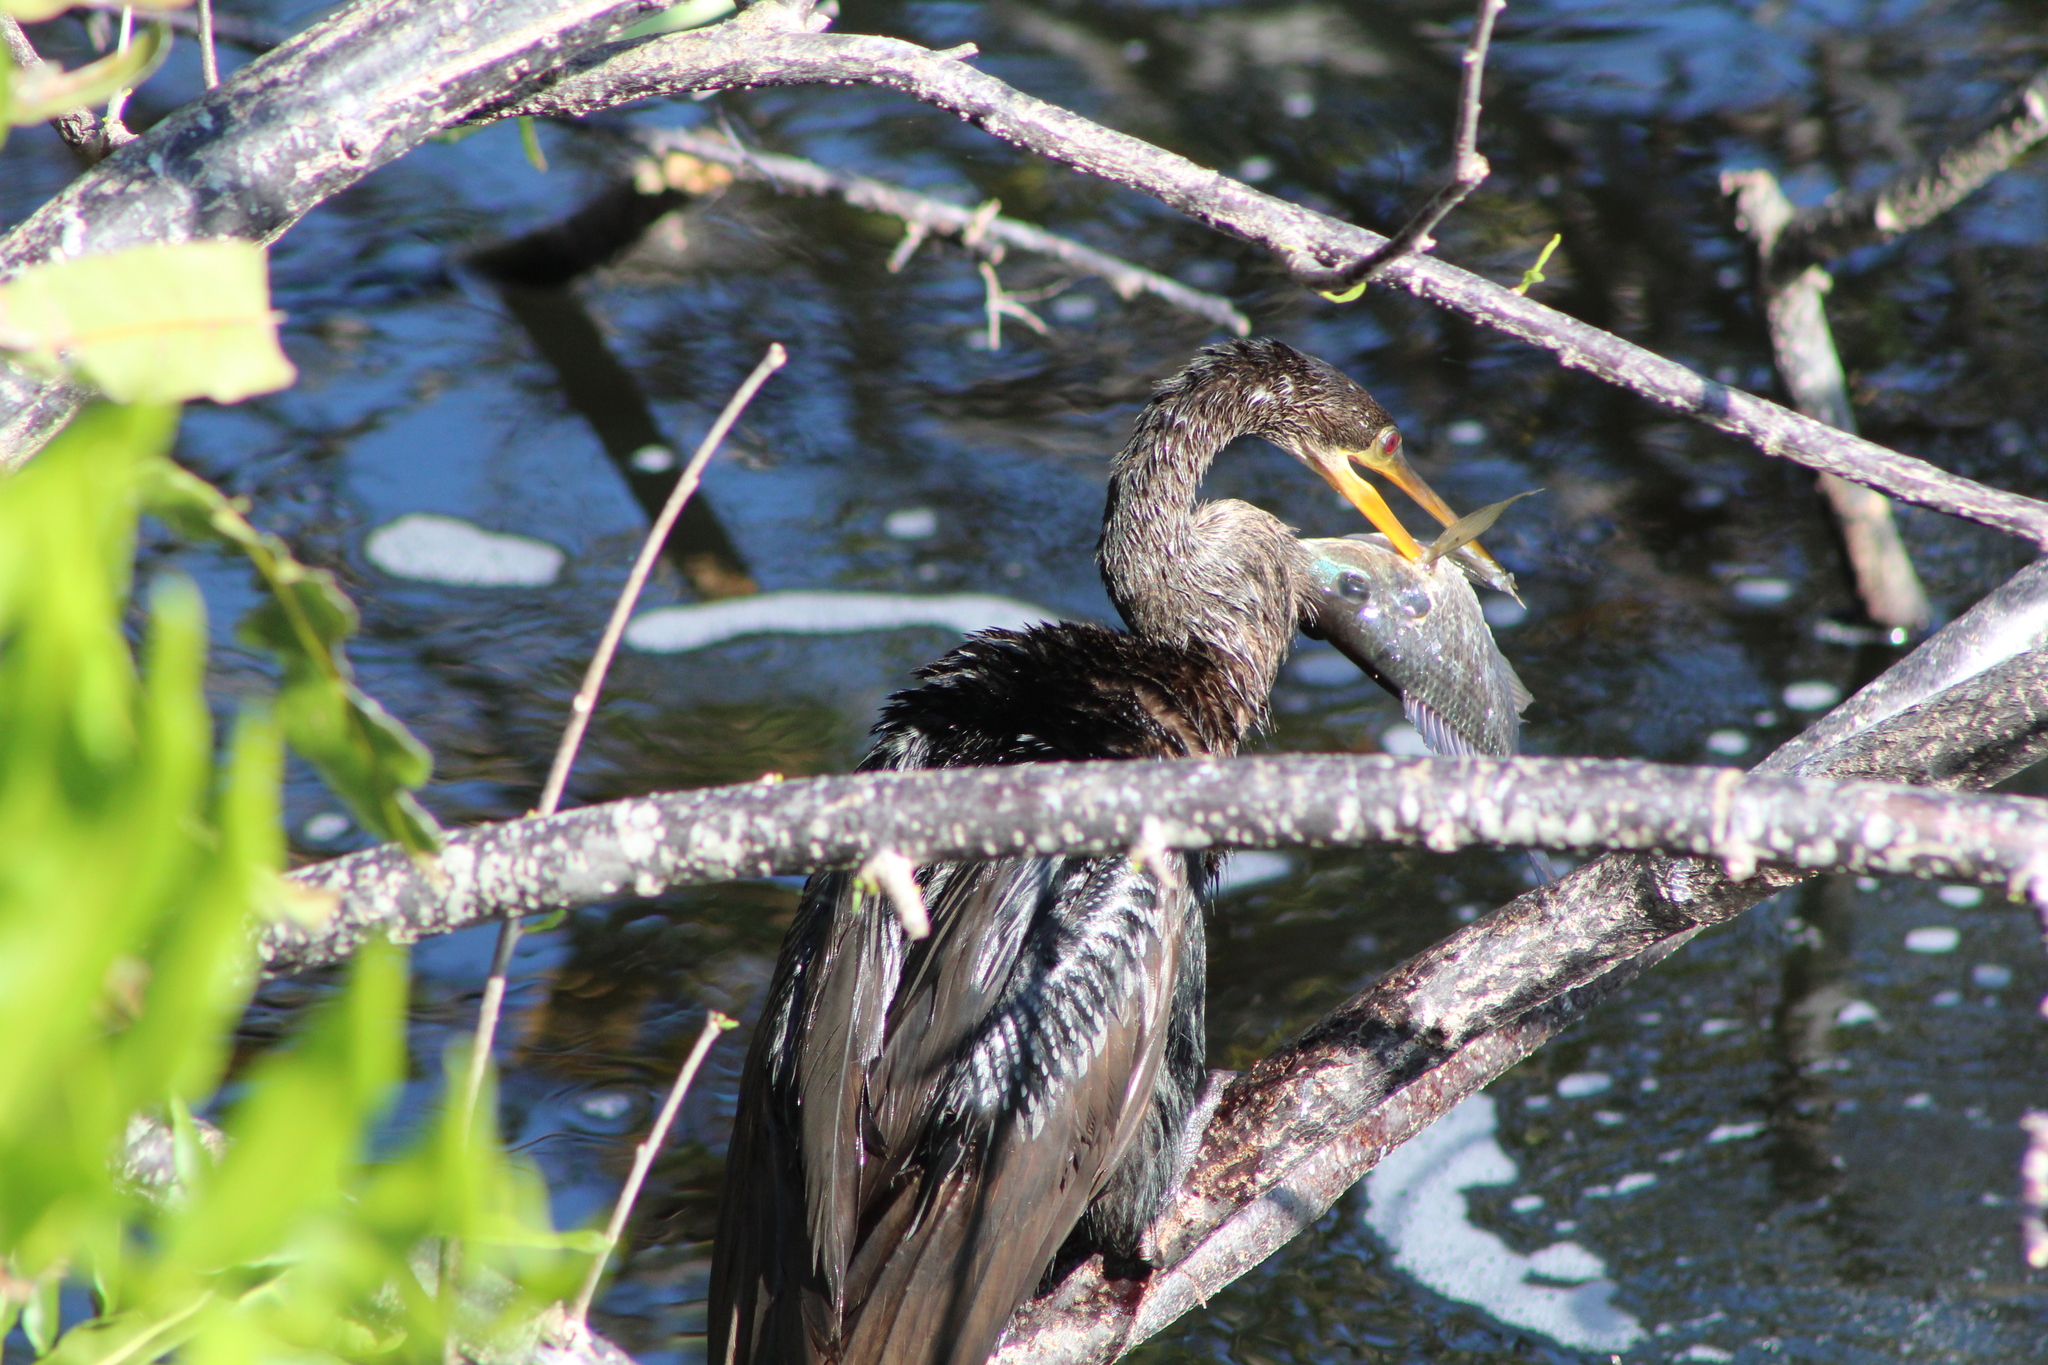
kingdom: Animalia
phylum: Chordata
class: Aves
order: Suliformes
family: Anhingidae
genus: Anhinga
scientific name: Anhinga anhinga
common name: Anhinga
